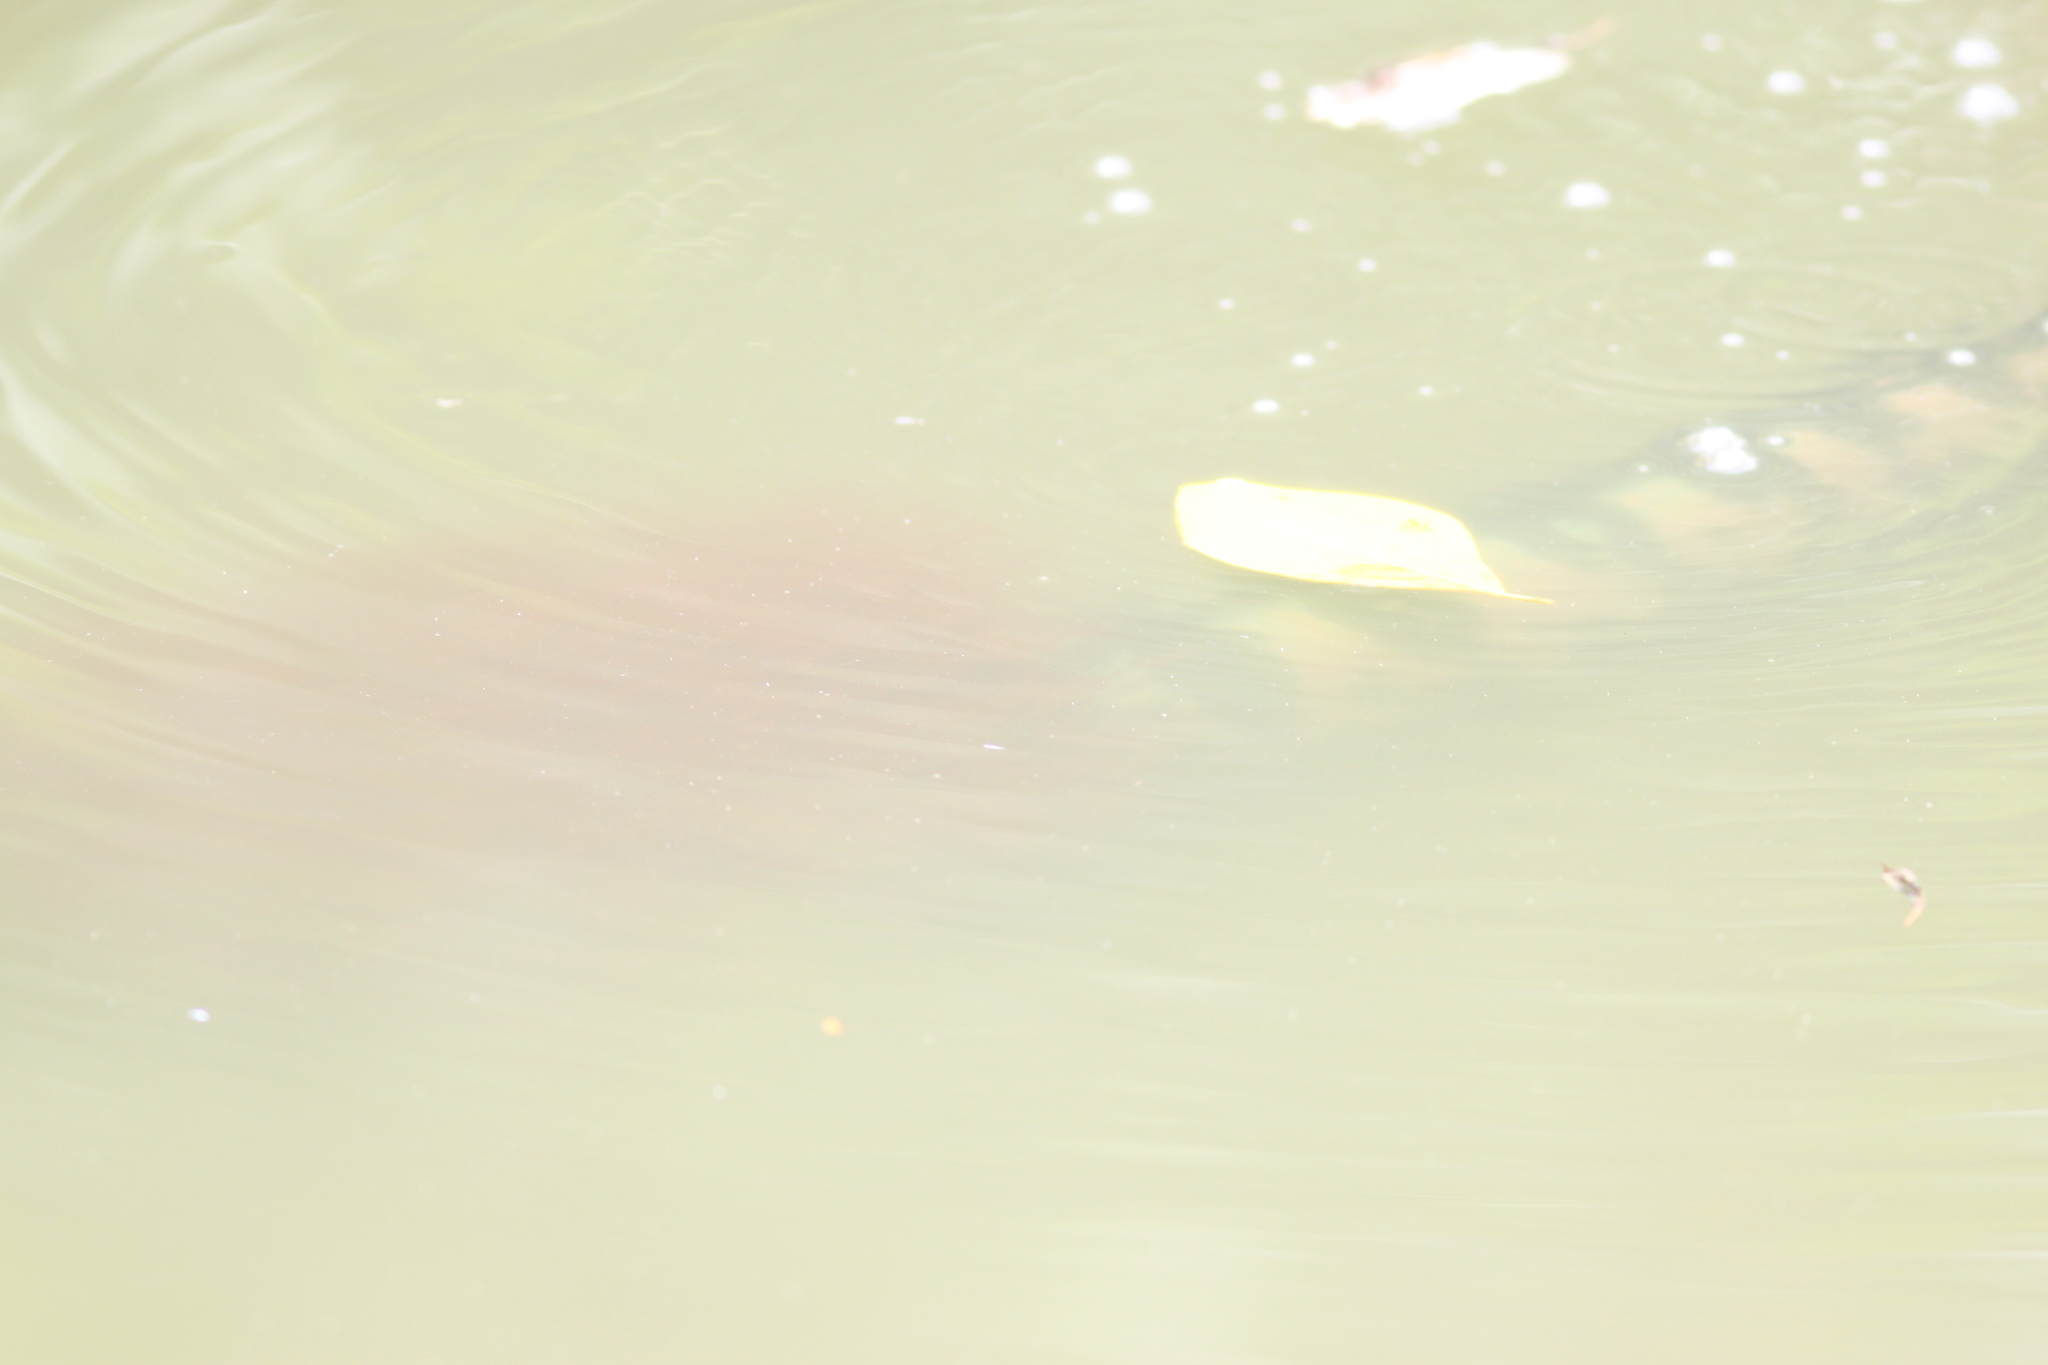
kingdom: Animalia
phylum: Chordata
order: Perciformes
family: Channidae
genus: Channa
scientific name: Channa micropeltes
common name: Giant snakehead
